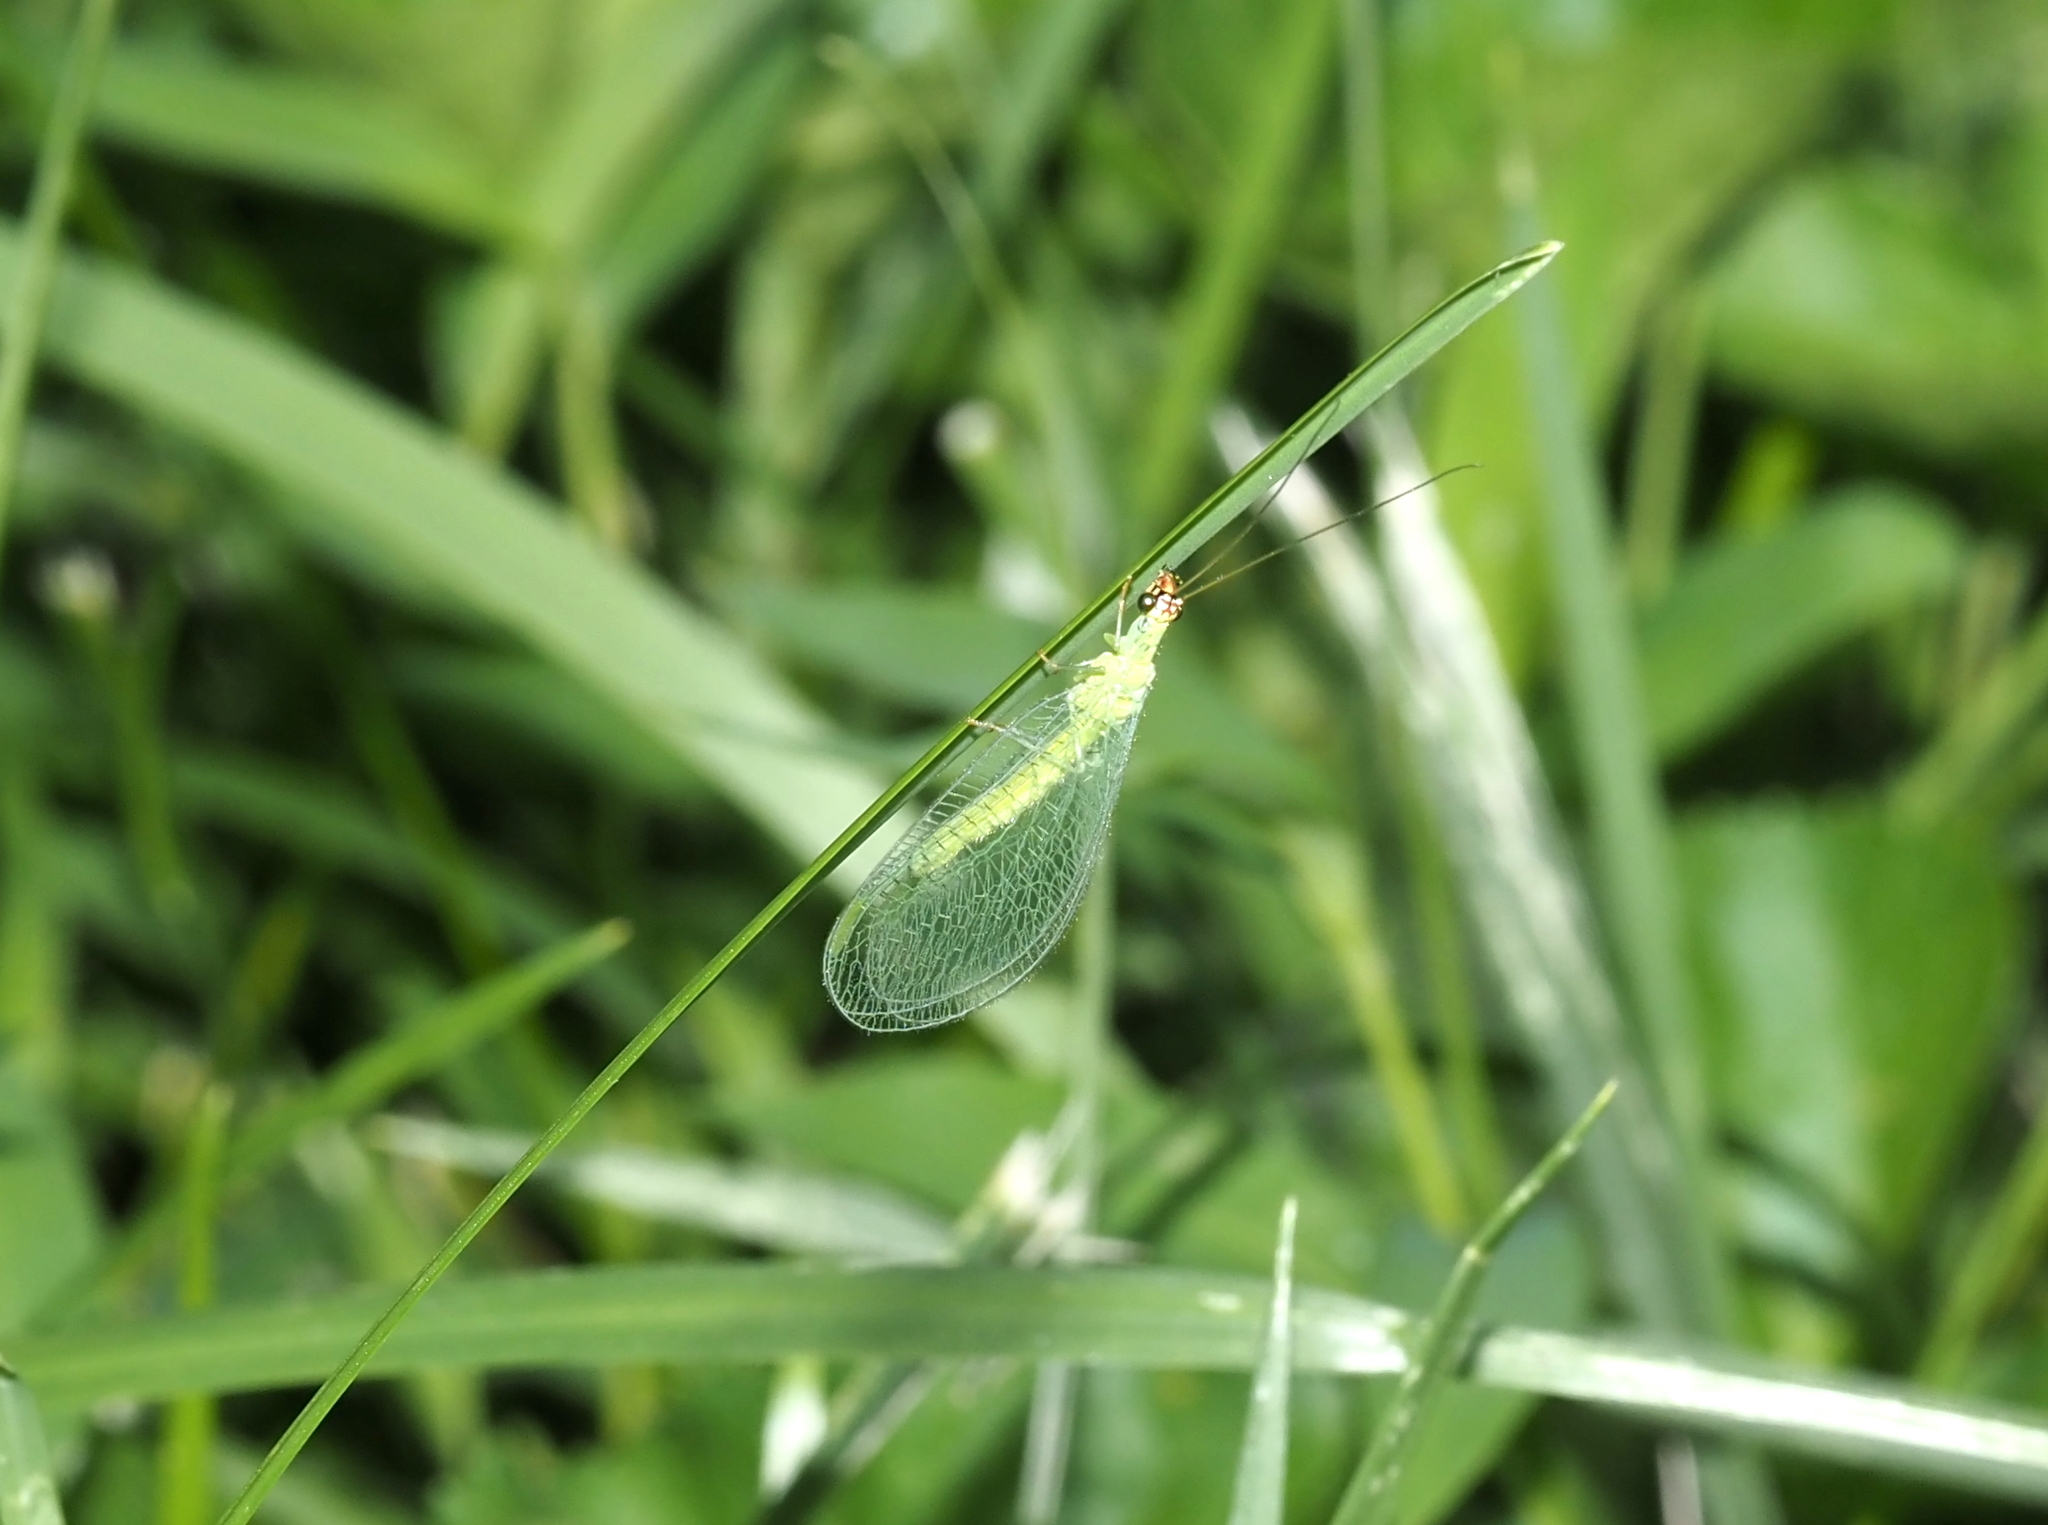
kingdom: Animalia
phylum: Arthropoda
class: Insecta
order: Neuroptera
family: Chrysopidae
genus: Chrysopa
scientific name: Chrysopa oculata
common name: Golden-eyed lacewing
